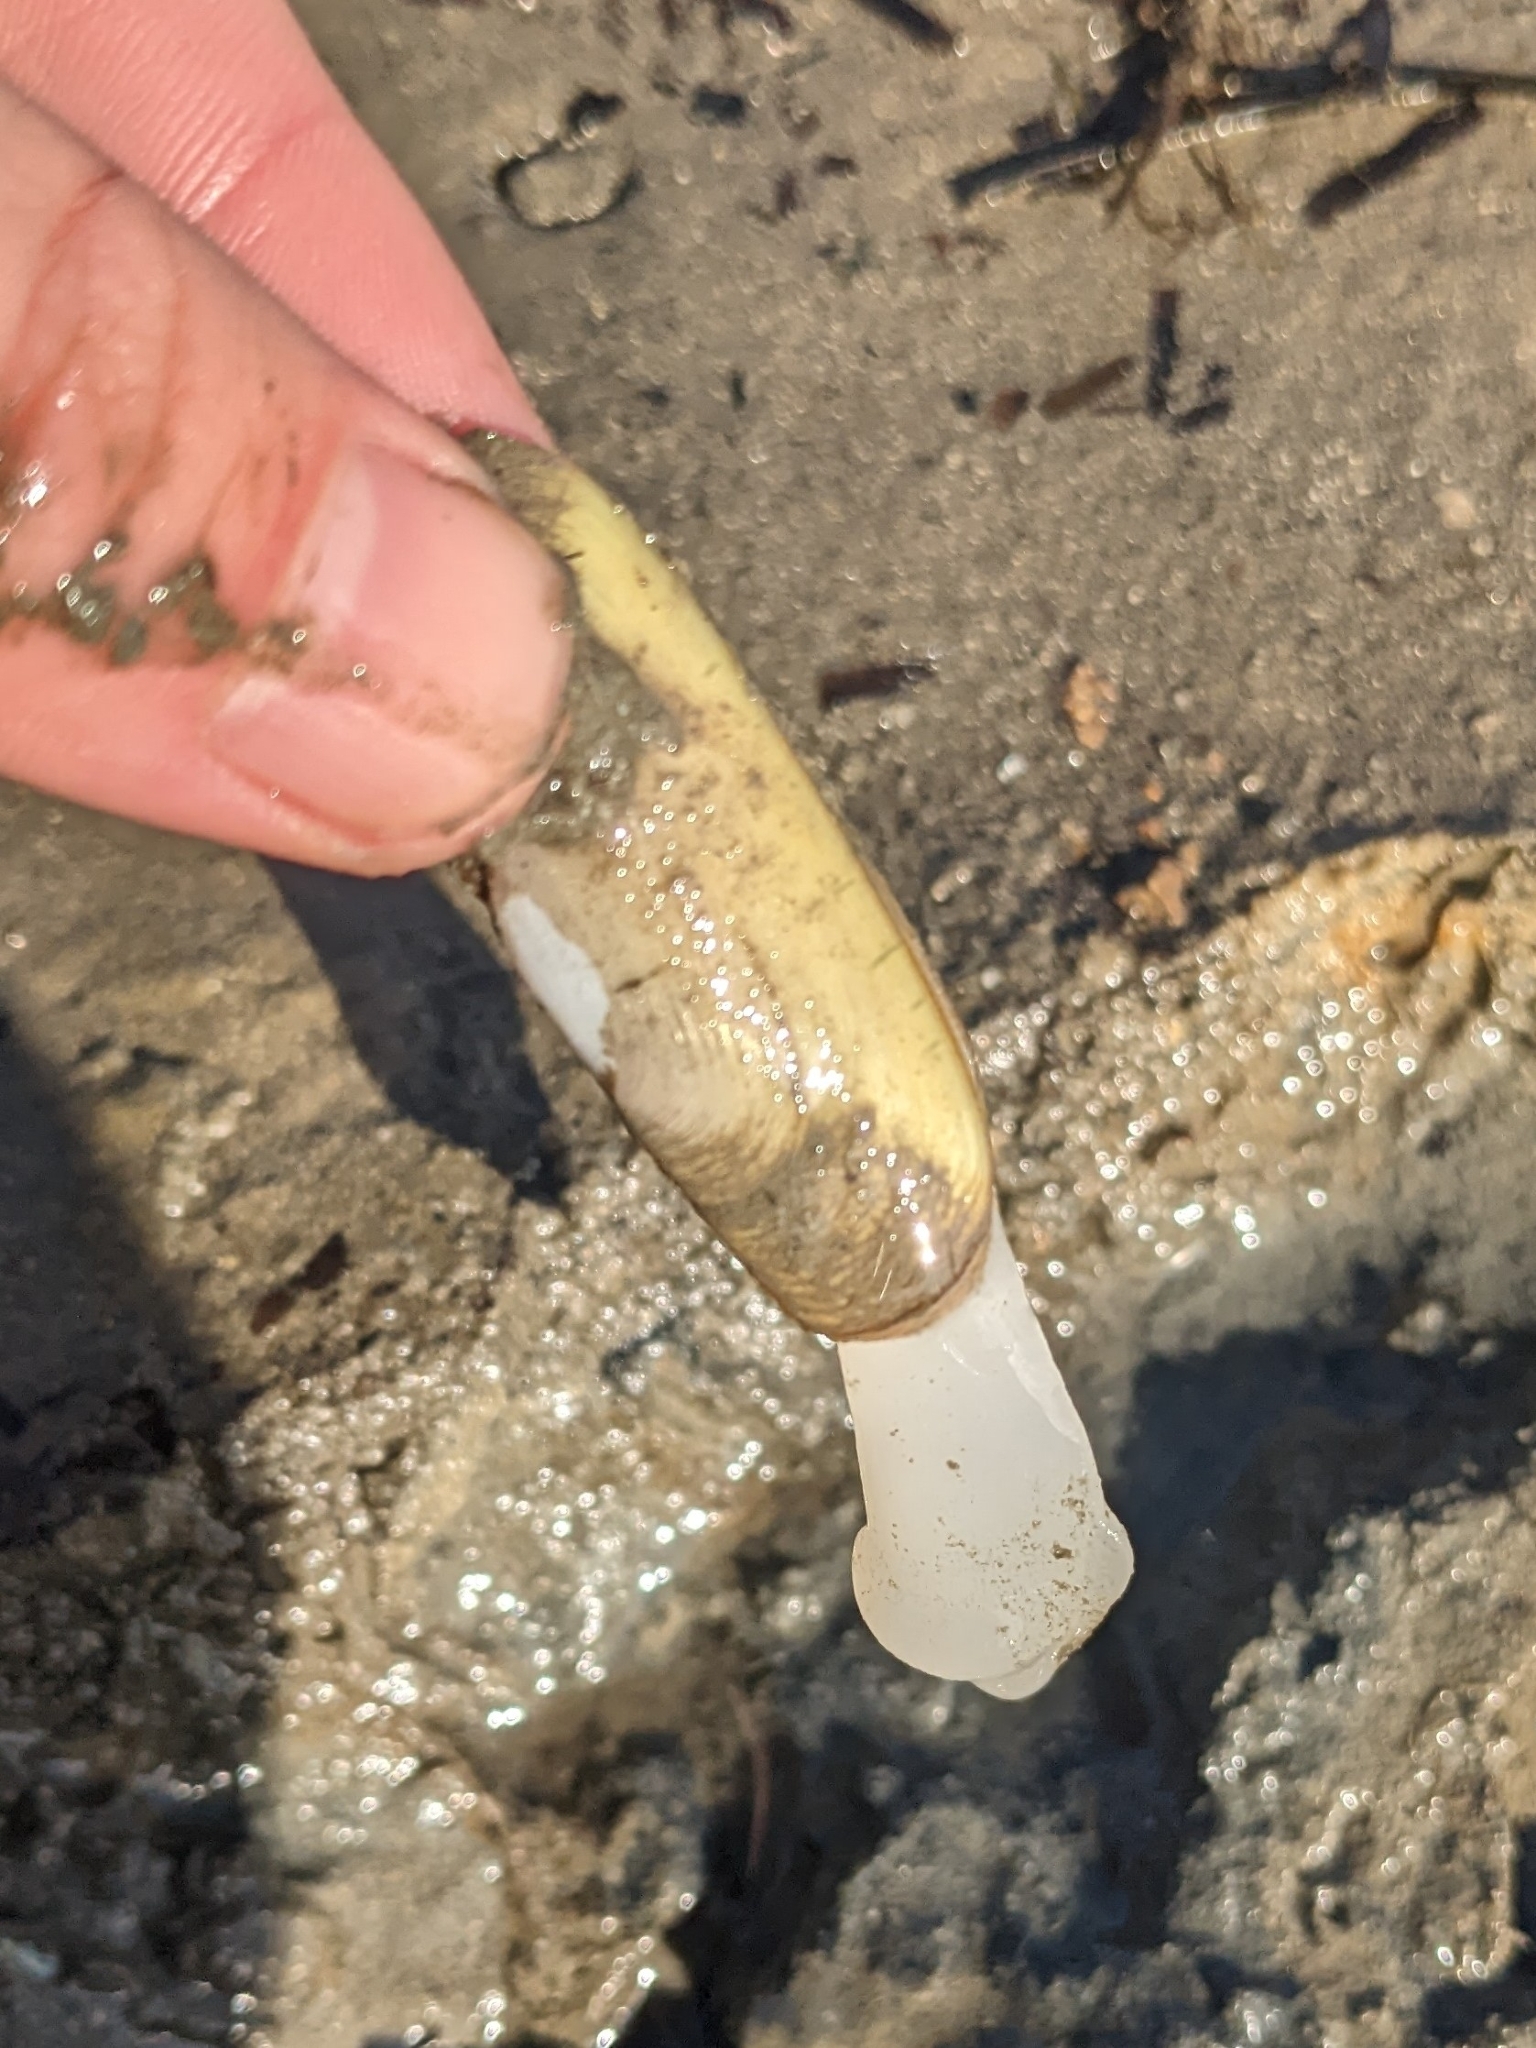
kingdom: Animalia
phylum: Mollusca
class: Bivalvia
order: Cardiida
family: Solecurtidae
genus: Tagelus
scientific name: Tagelus plebeius
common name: Stout tagelus
